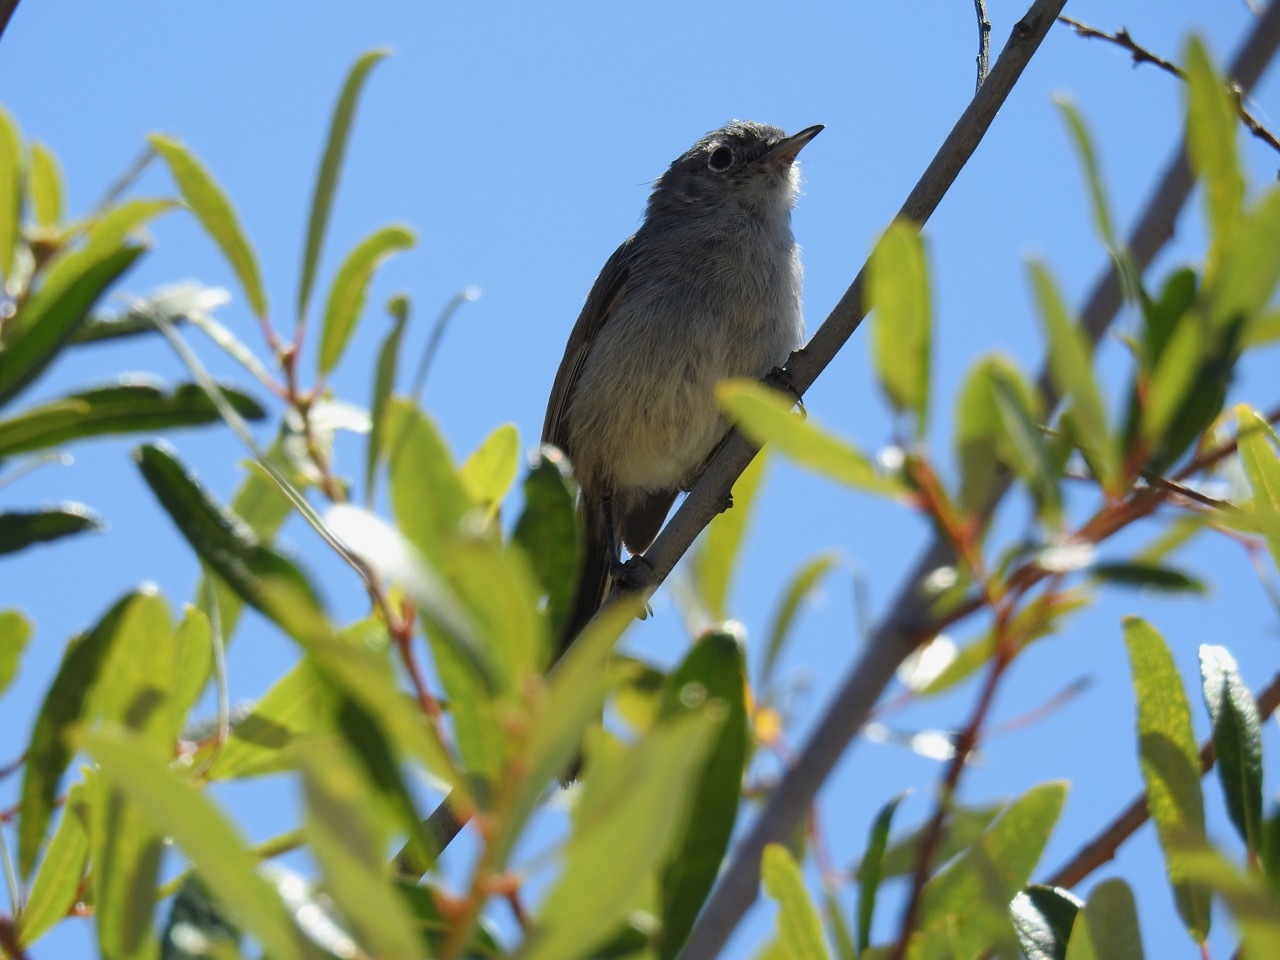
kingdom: Animalia
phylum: Chordata
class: Aves
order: Passeriformes
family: Polioptilidae
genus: Polioptila
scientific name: Polioptila californica
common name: California gnatcatcher
